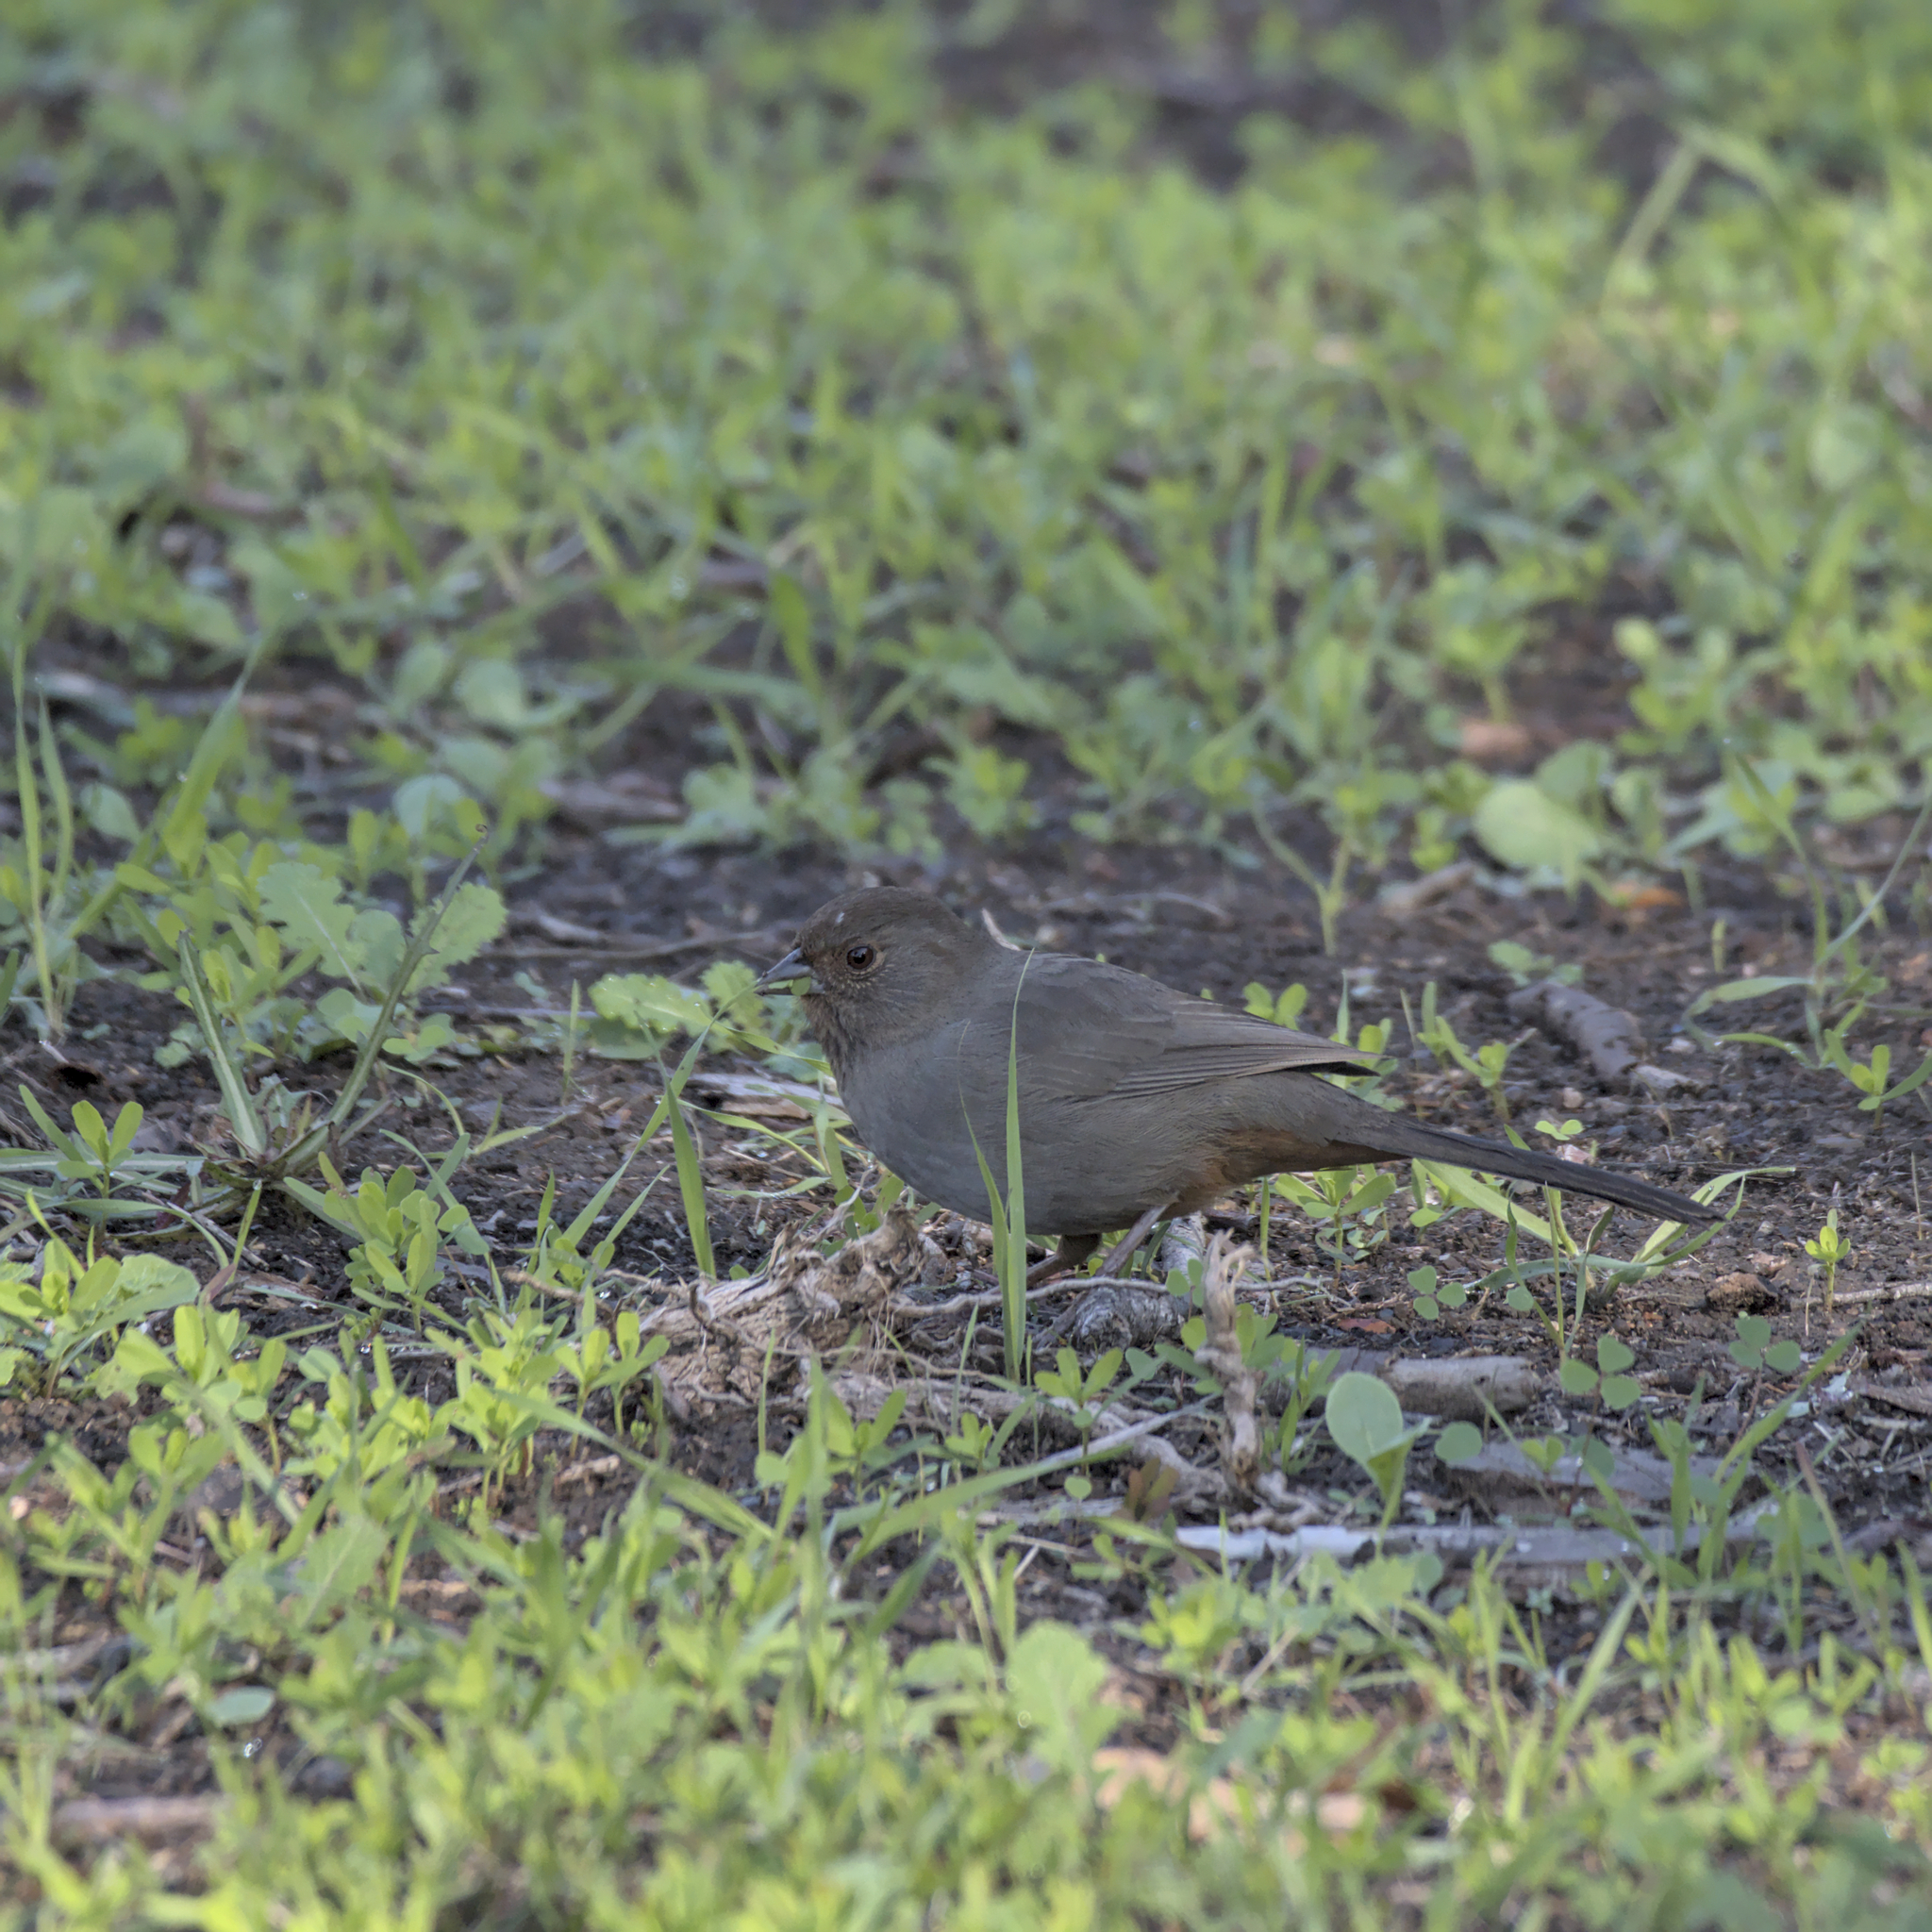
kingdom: Animalia
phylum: Chordata
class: Aves
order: Passeriformes
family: Passerellidae
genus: Melozone
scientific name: Melozone crissalis
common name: California towhee
